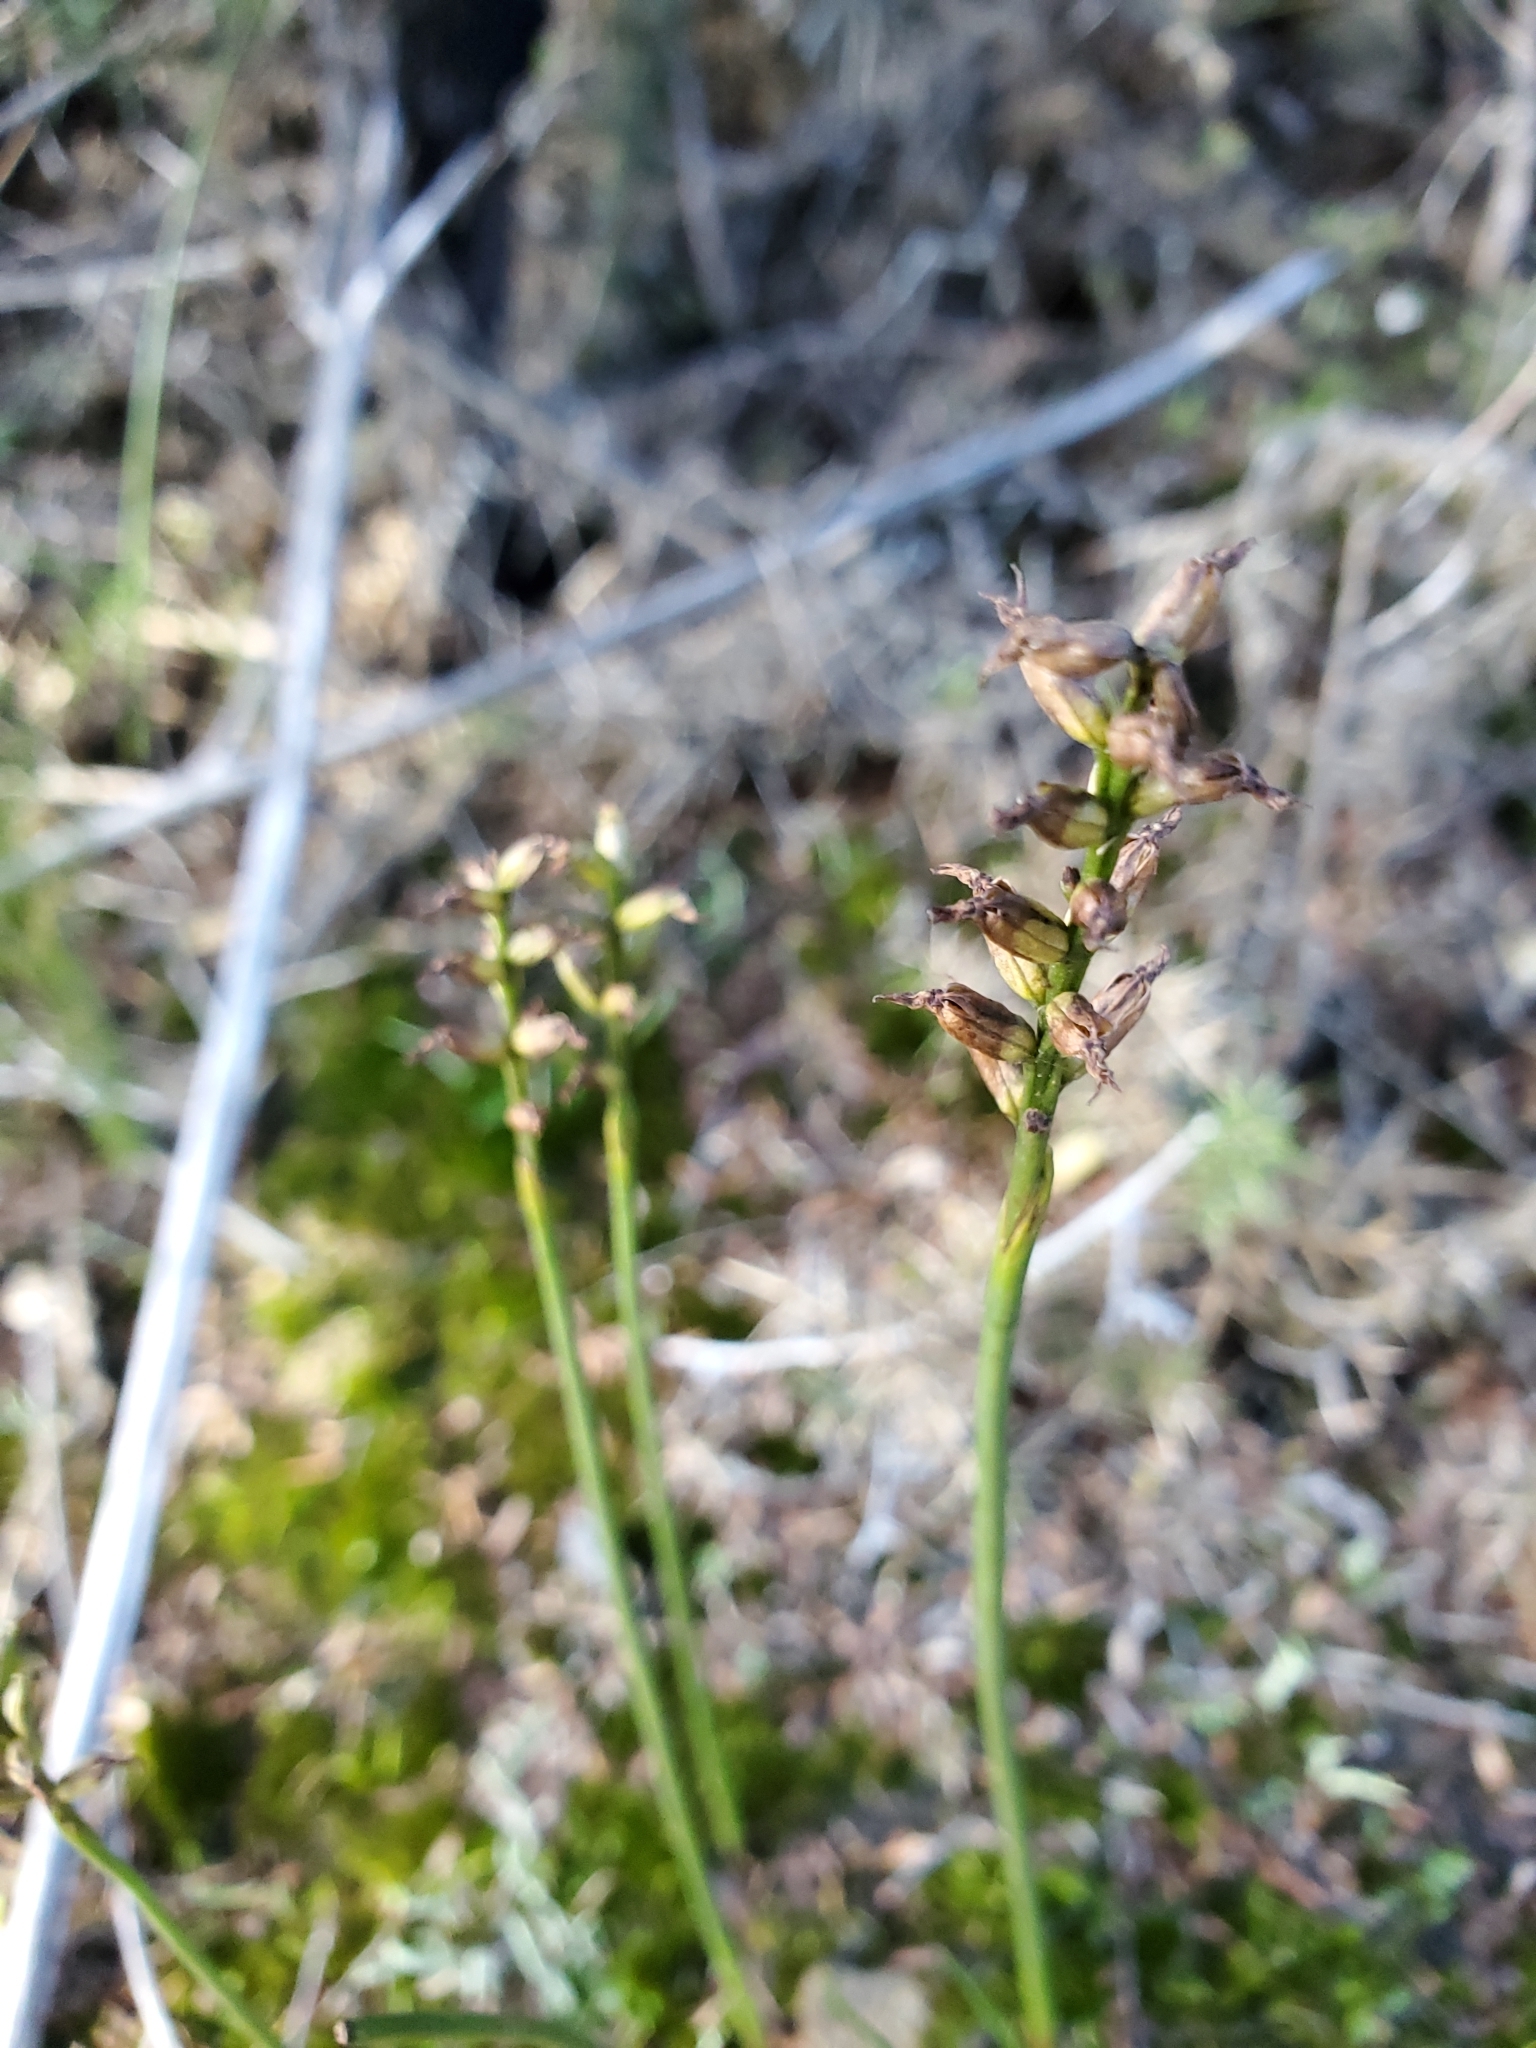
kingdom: Plantae
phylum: Tracheophyta
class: Liliopsida
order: Asparagales
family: Orchidaceae
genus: Genoplesium
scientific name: Genoplesium nudum
